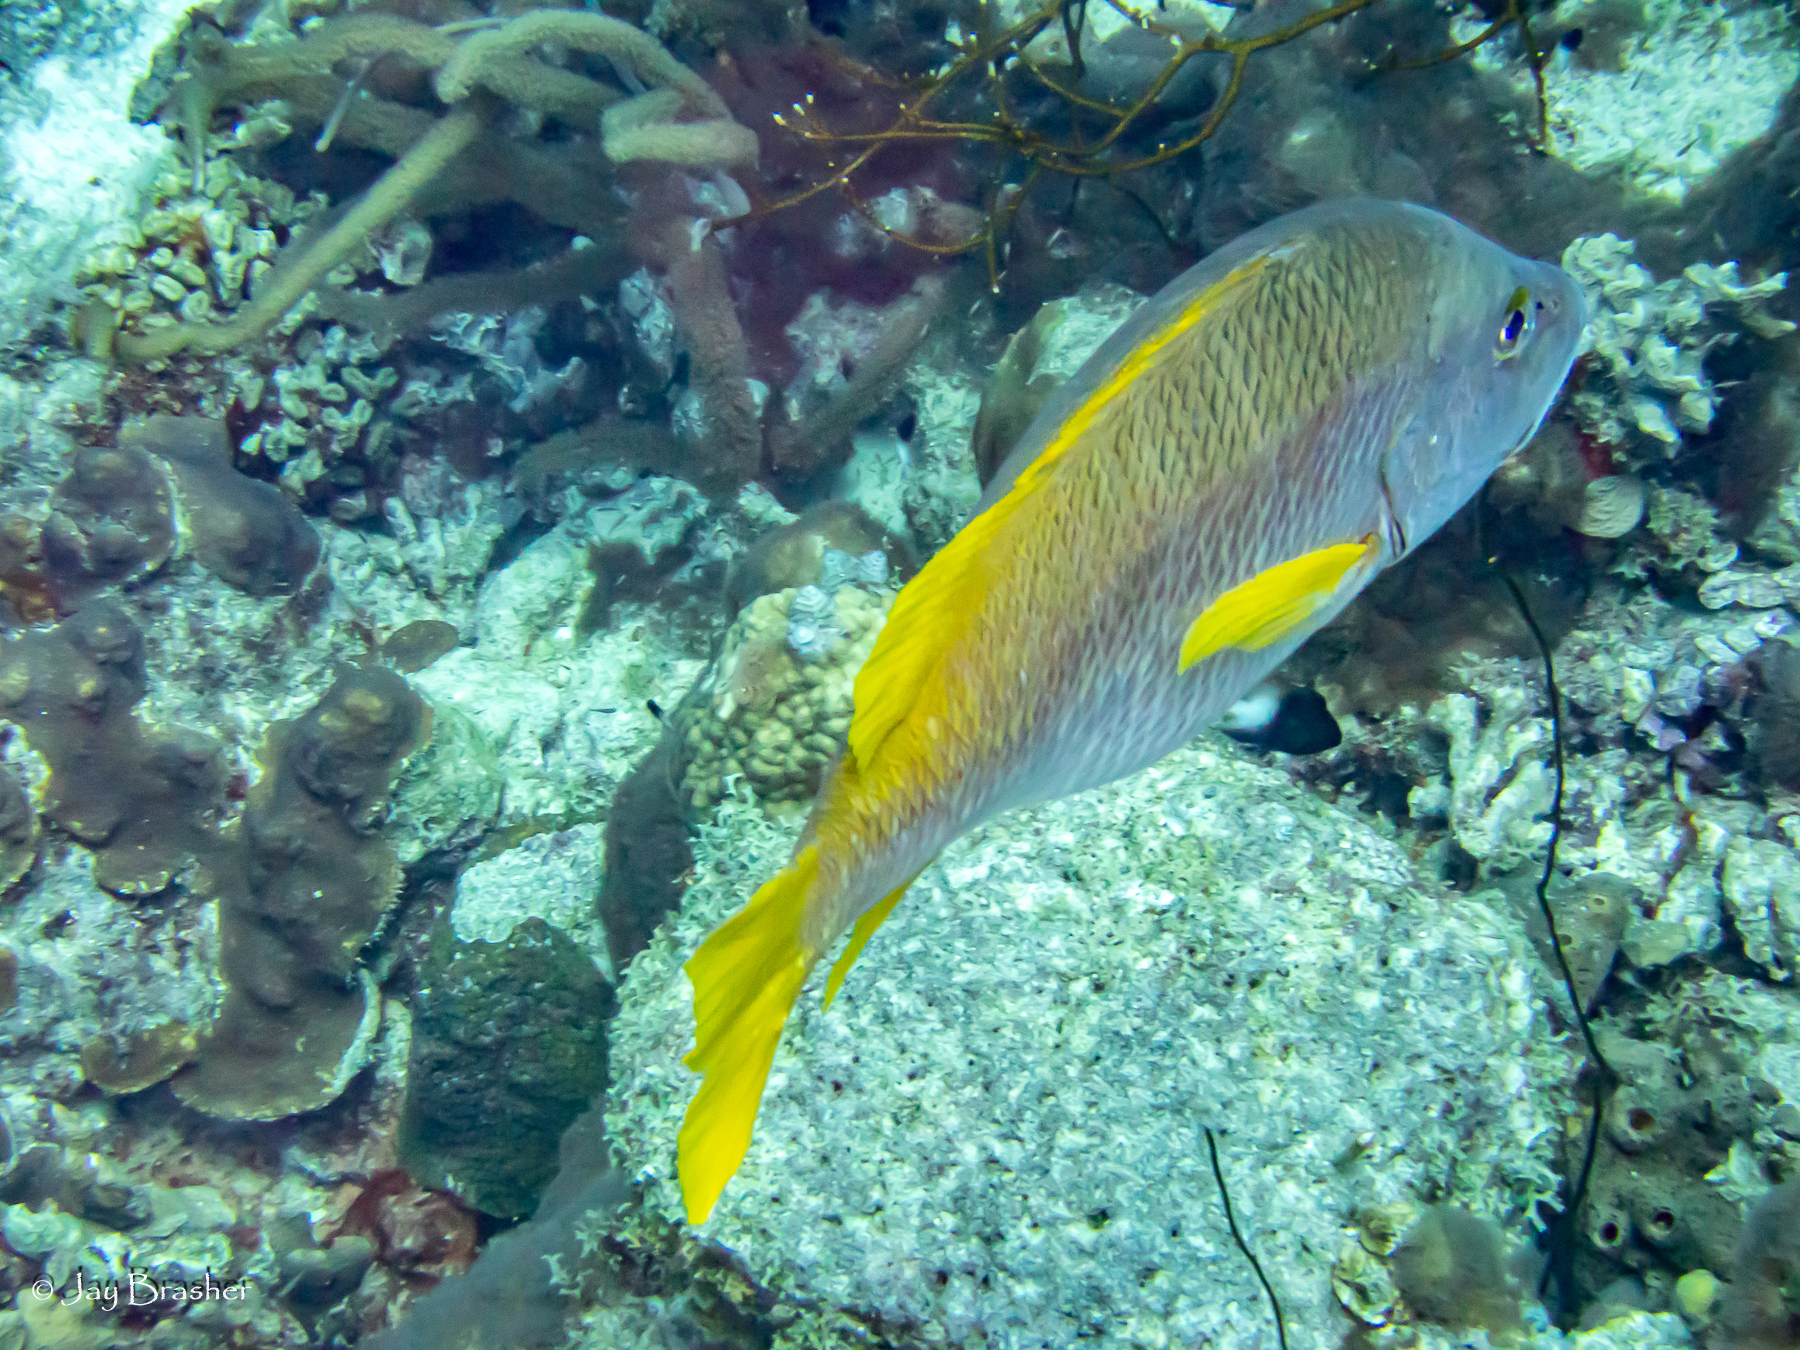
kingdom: Animalia
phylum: Chordata
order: Perciformes
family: Lutjanidae
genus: Lutjanus
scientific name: Lutjanus apodus
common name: Schoolmaster
